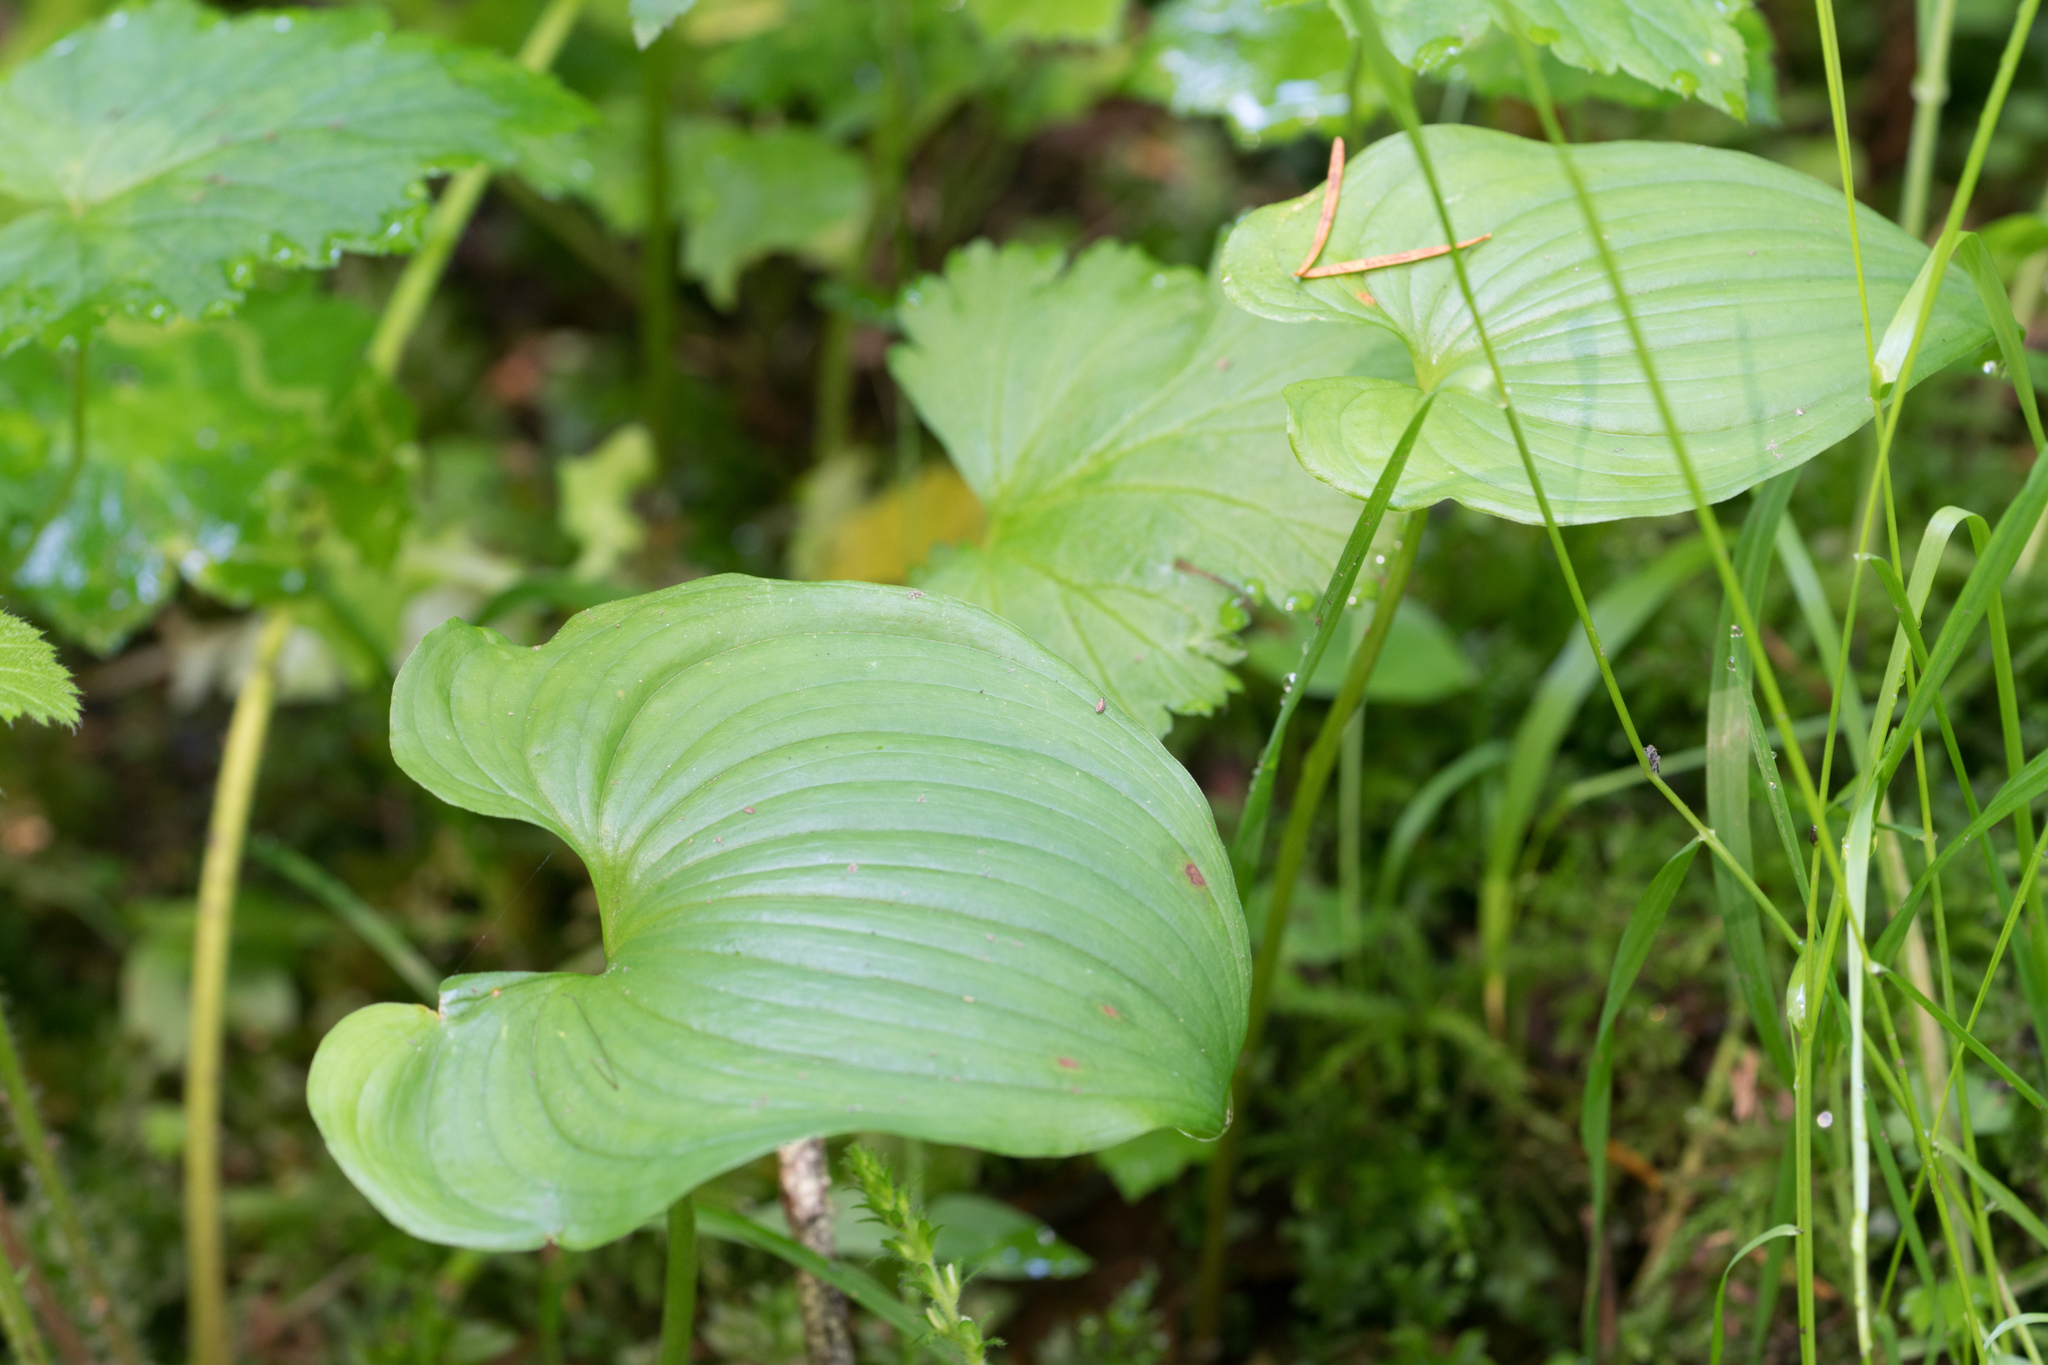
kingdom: Plantae
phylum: Tracheophyta
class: Liliopsida
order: Asparagales
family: Asparagaceae
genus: Maianthemum
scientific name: Maianthemum dilatatum
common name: False lily-of-the-valley
